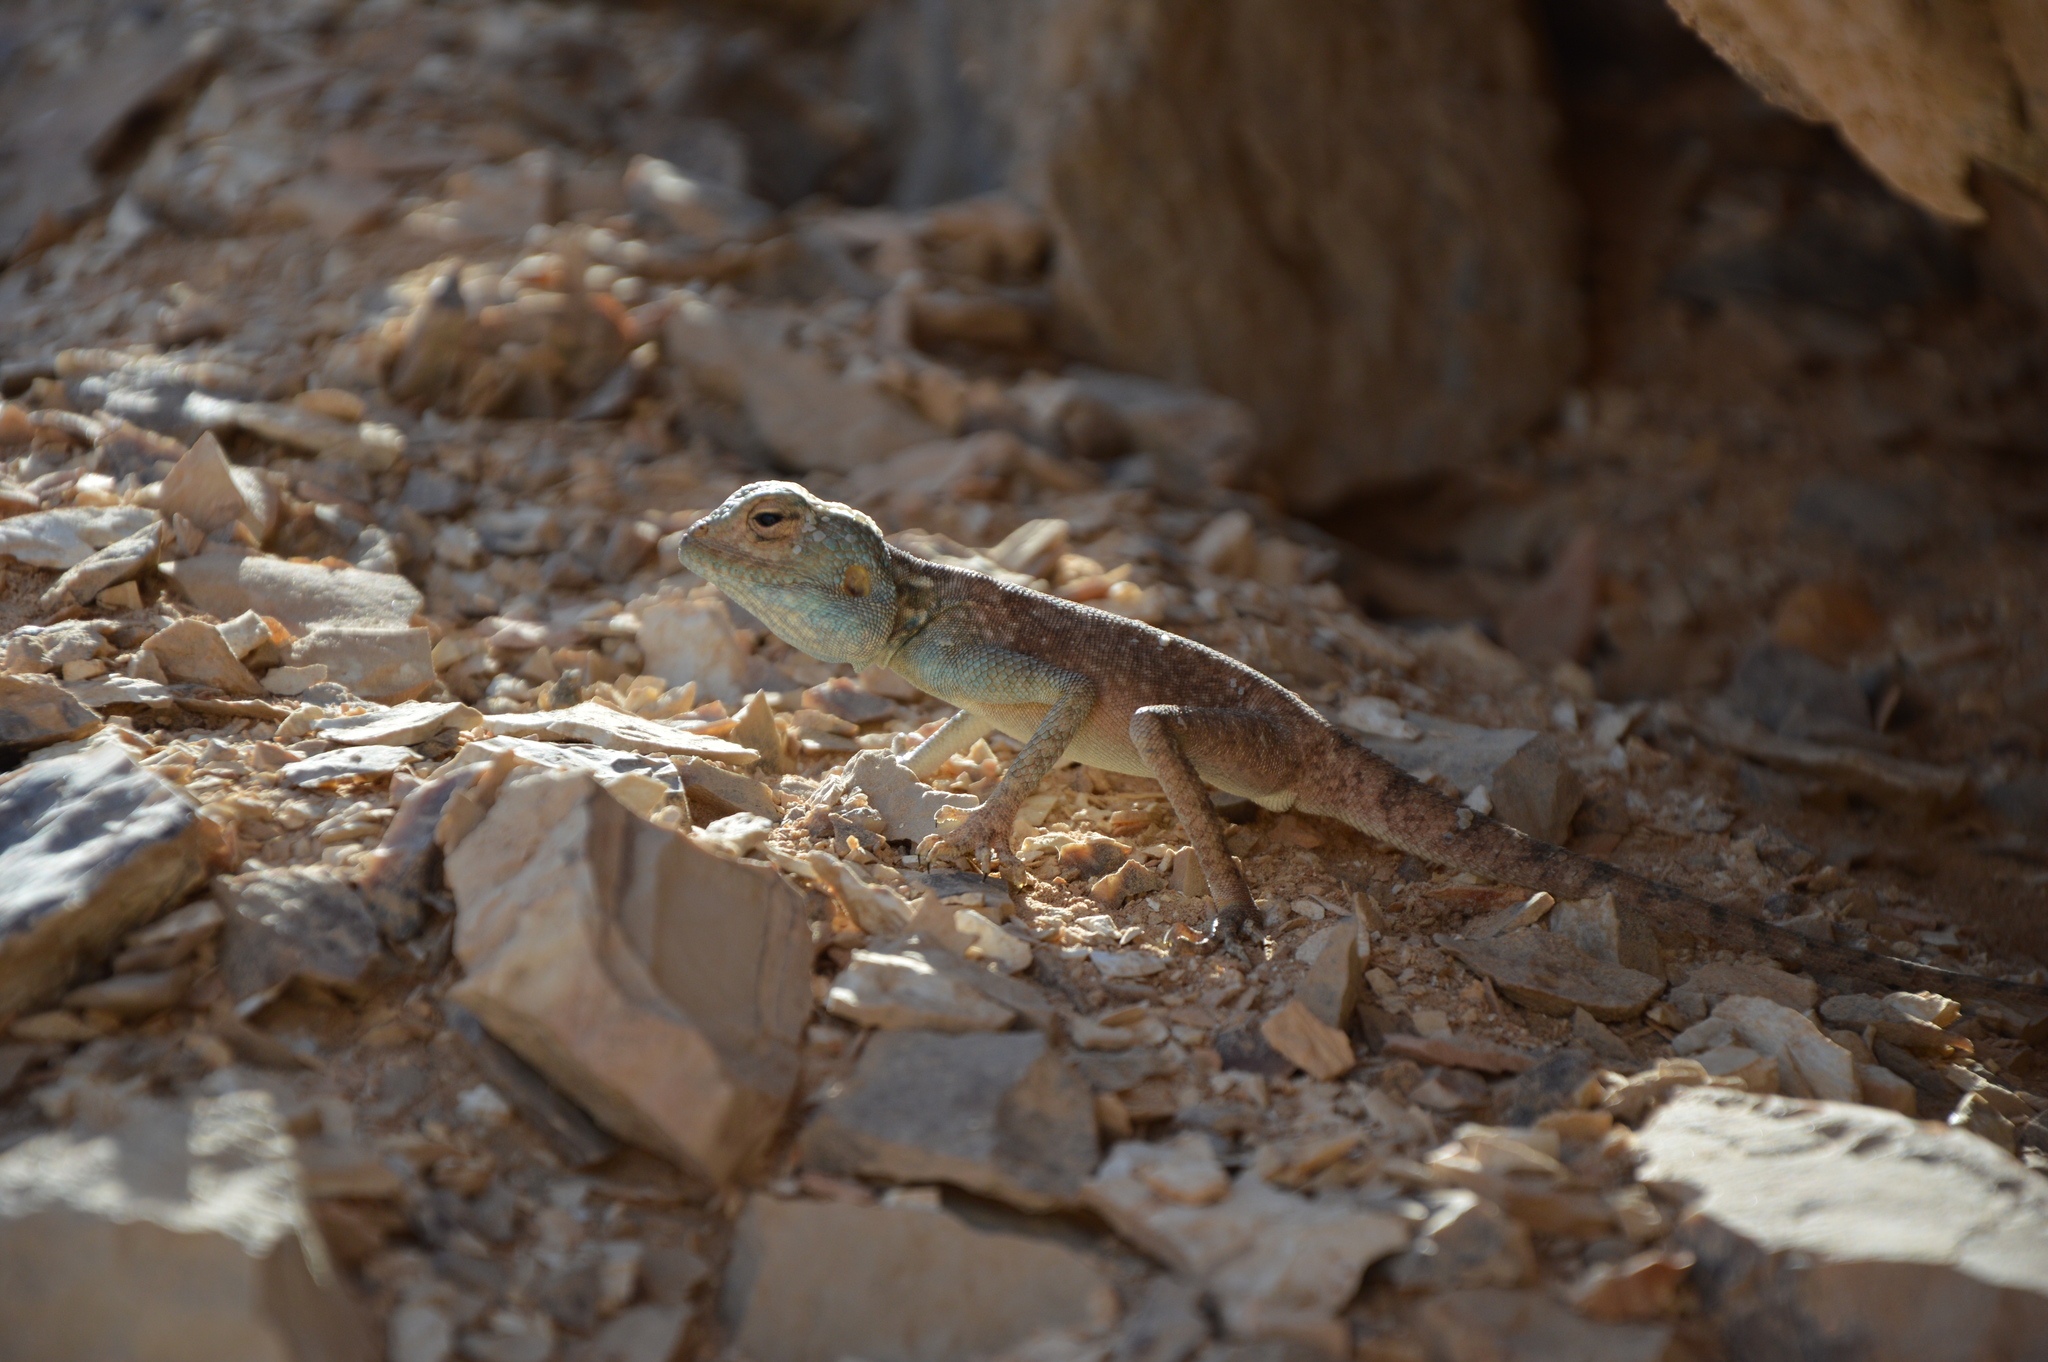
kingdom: Animalia
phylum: Chordata
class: Squamata
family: Agamidae
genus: Pseudotrapelus
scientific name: Pseudotrapelus aqabensis
